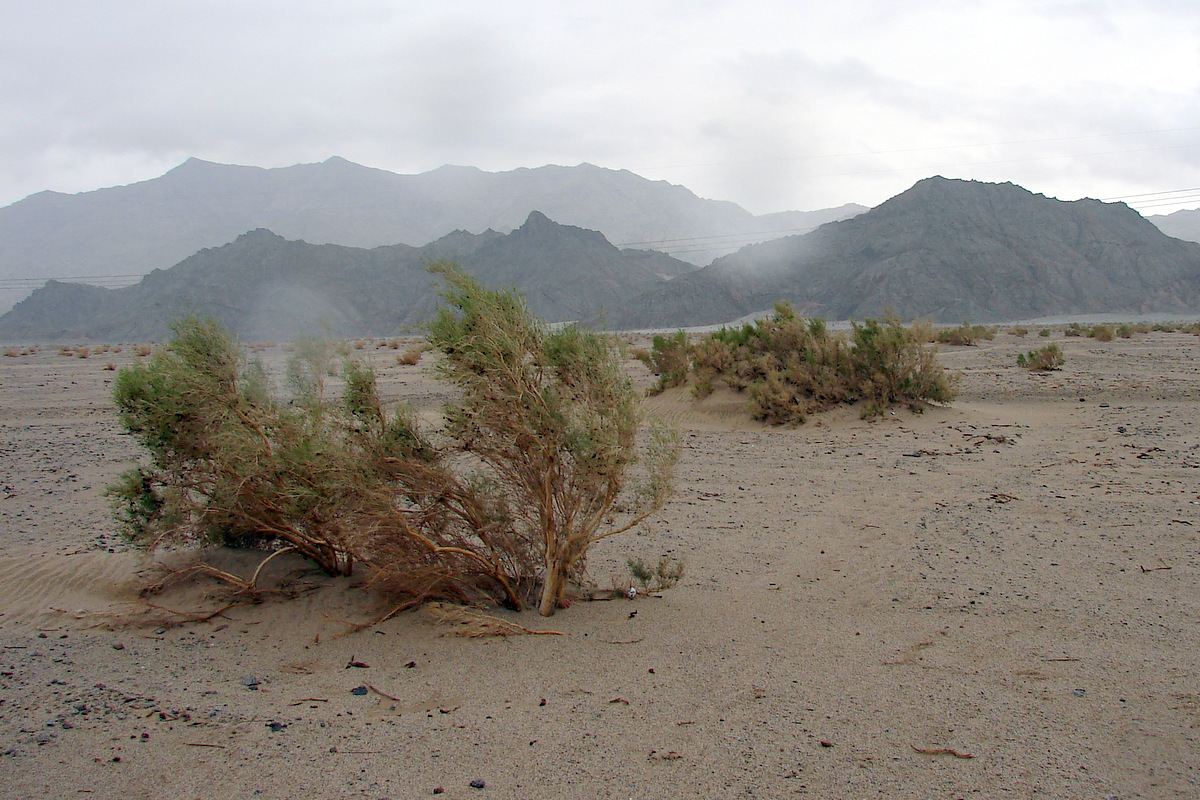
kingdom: Plantae
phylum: Tracheophyta
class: Magnoliopsida
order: Caryophyllales
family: Amaranthaceae
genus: Haloxylon
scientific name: Haloxylon ammodendron
